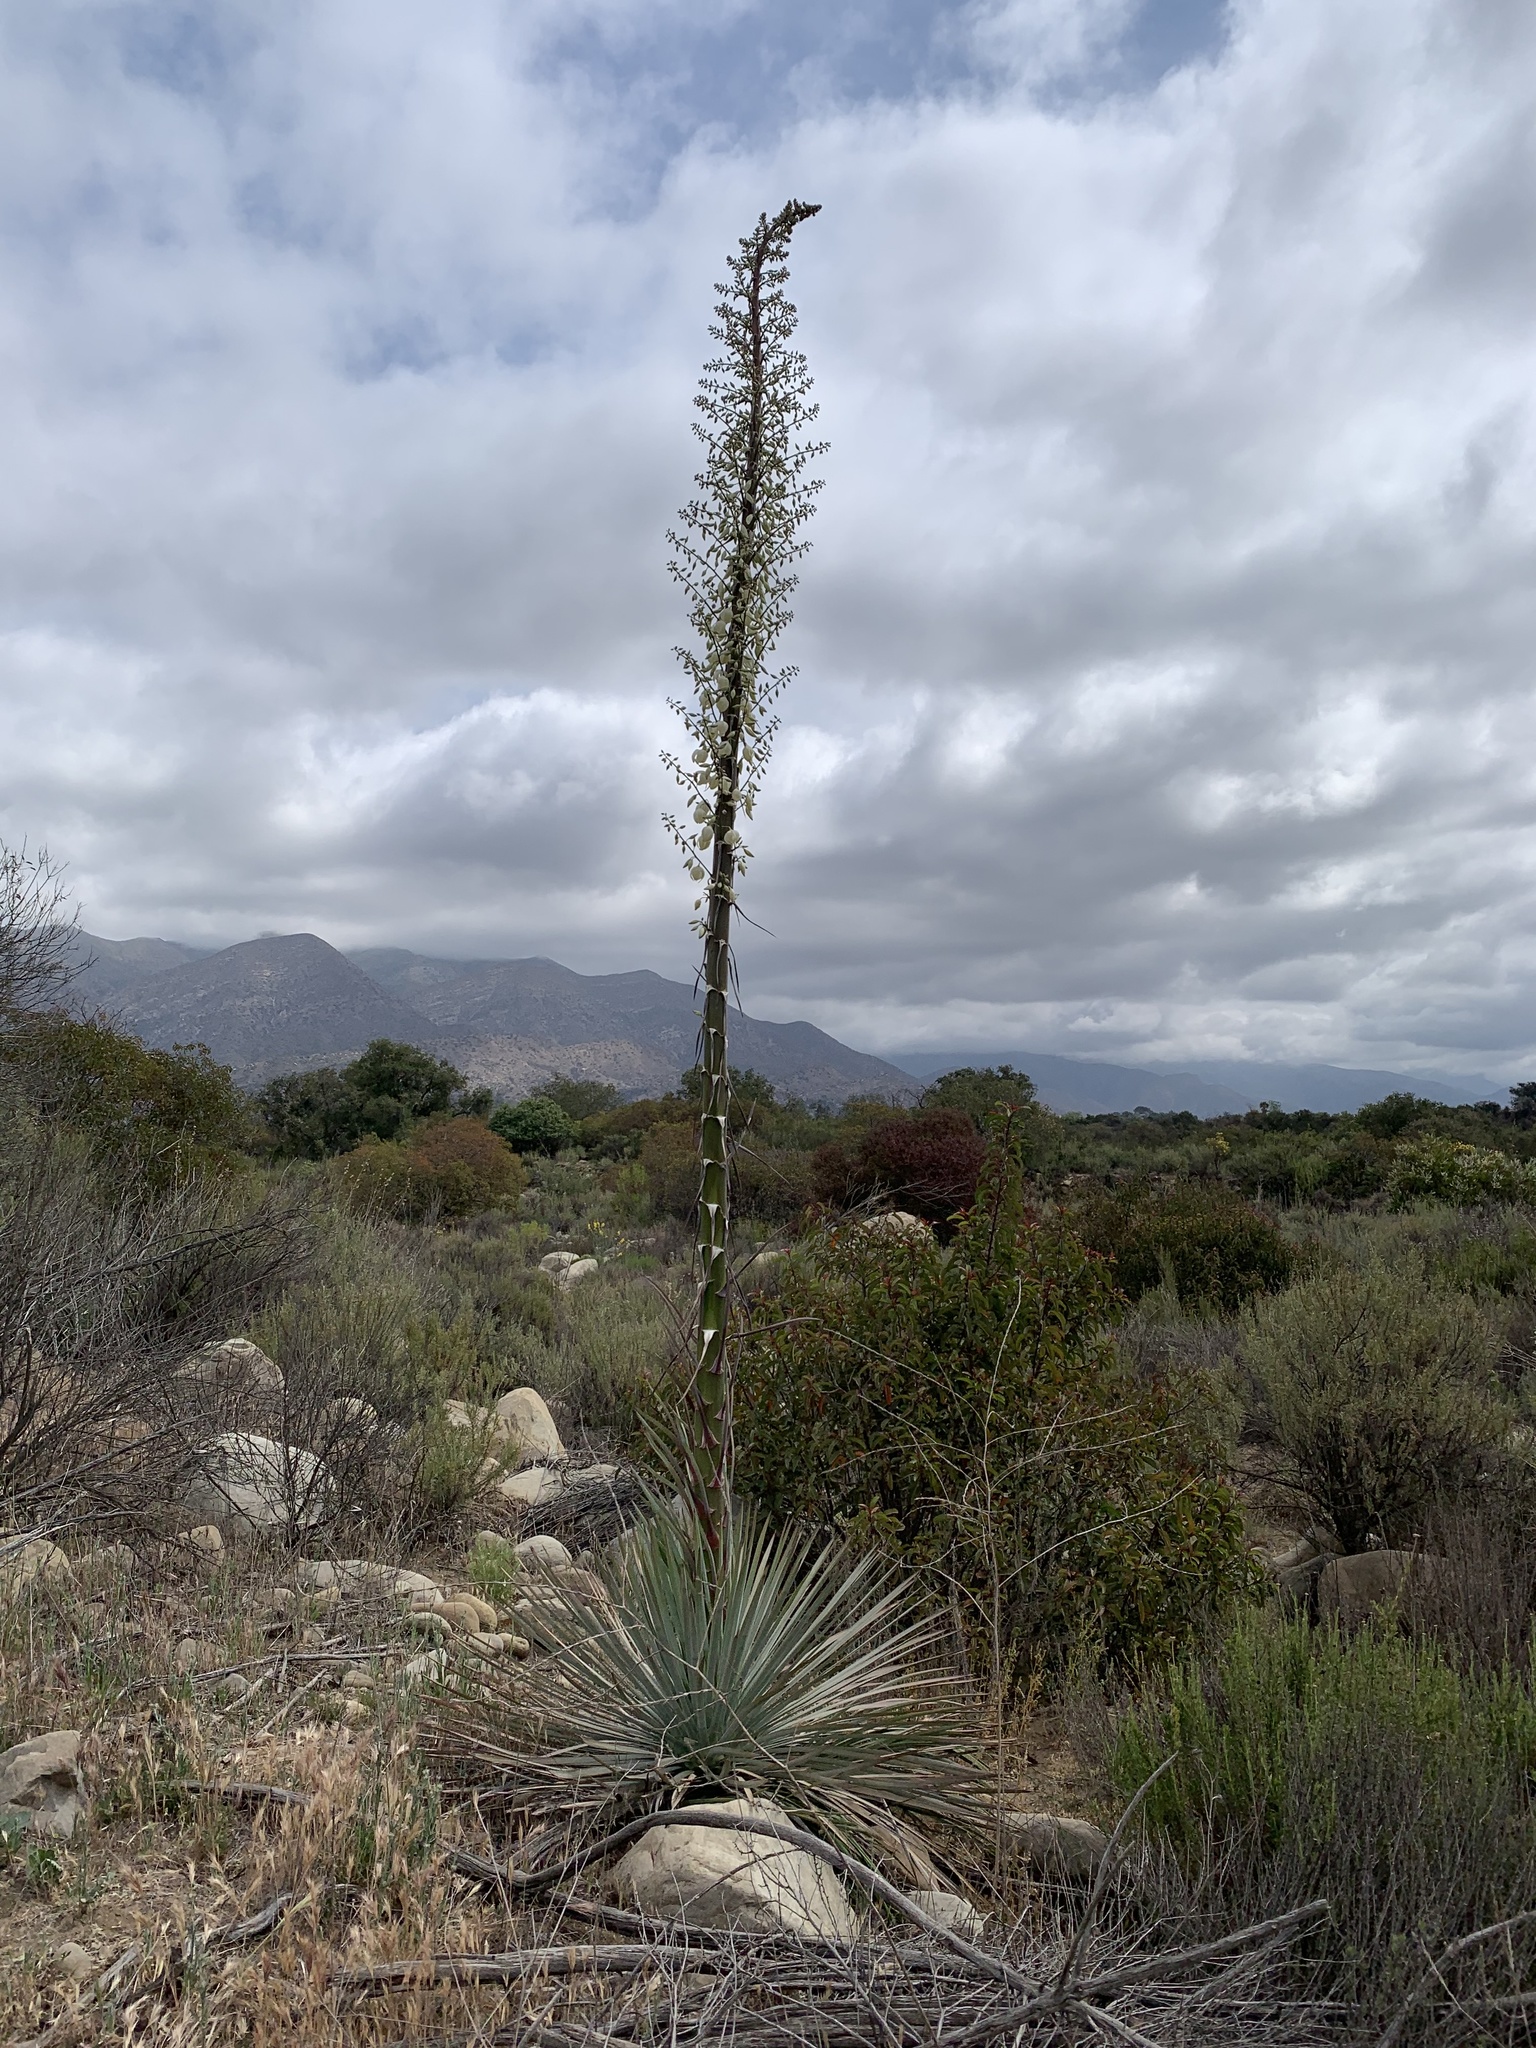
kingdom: Plantae
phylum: Tracheophyta
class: Liliopsida
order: Asparagales
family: Asparagaceae
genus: Hesperoyucca
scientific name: Hesperoyucca whipplei
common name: Our lord's-candle
